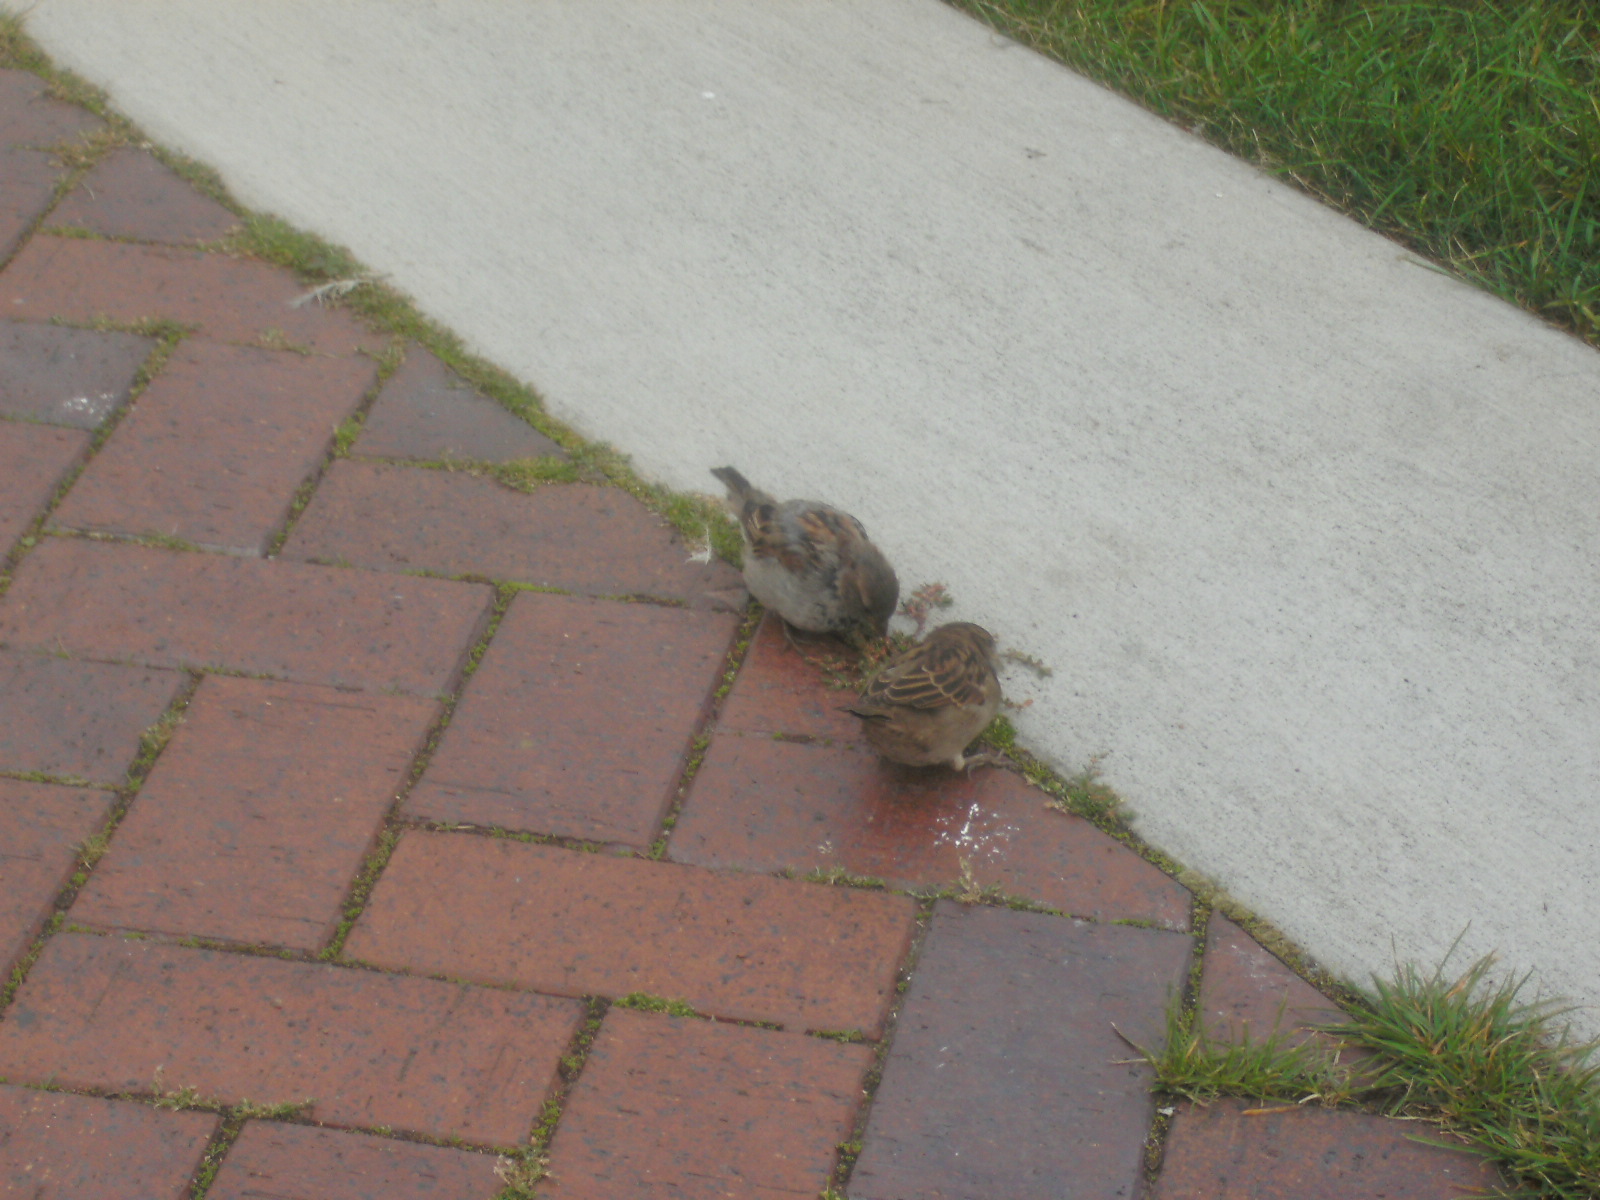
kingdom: Animalia
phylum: Chordata
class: Aves
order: Passeriformes
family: Passeridae
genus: Passer
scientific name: Passer domesticus
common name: House sparrow
